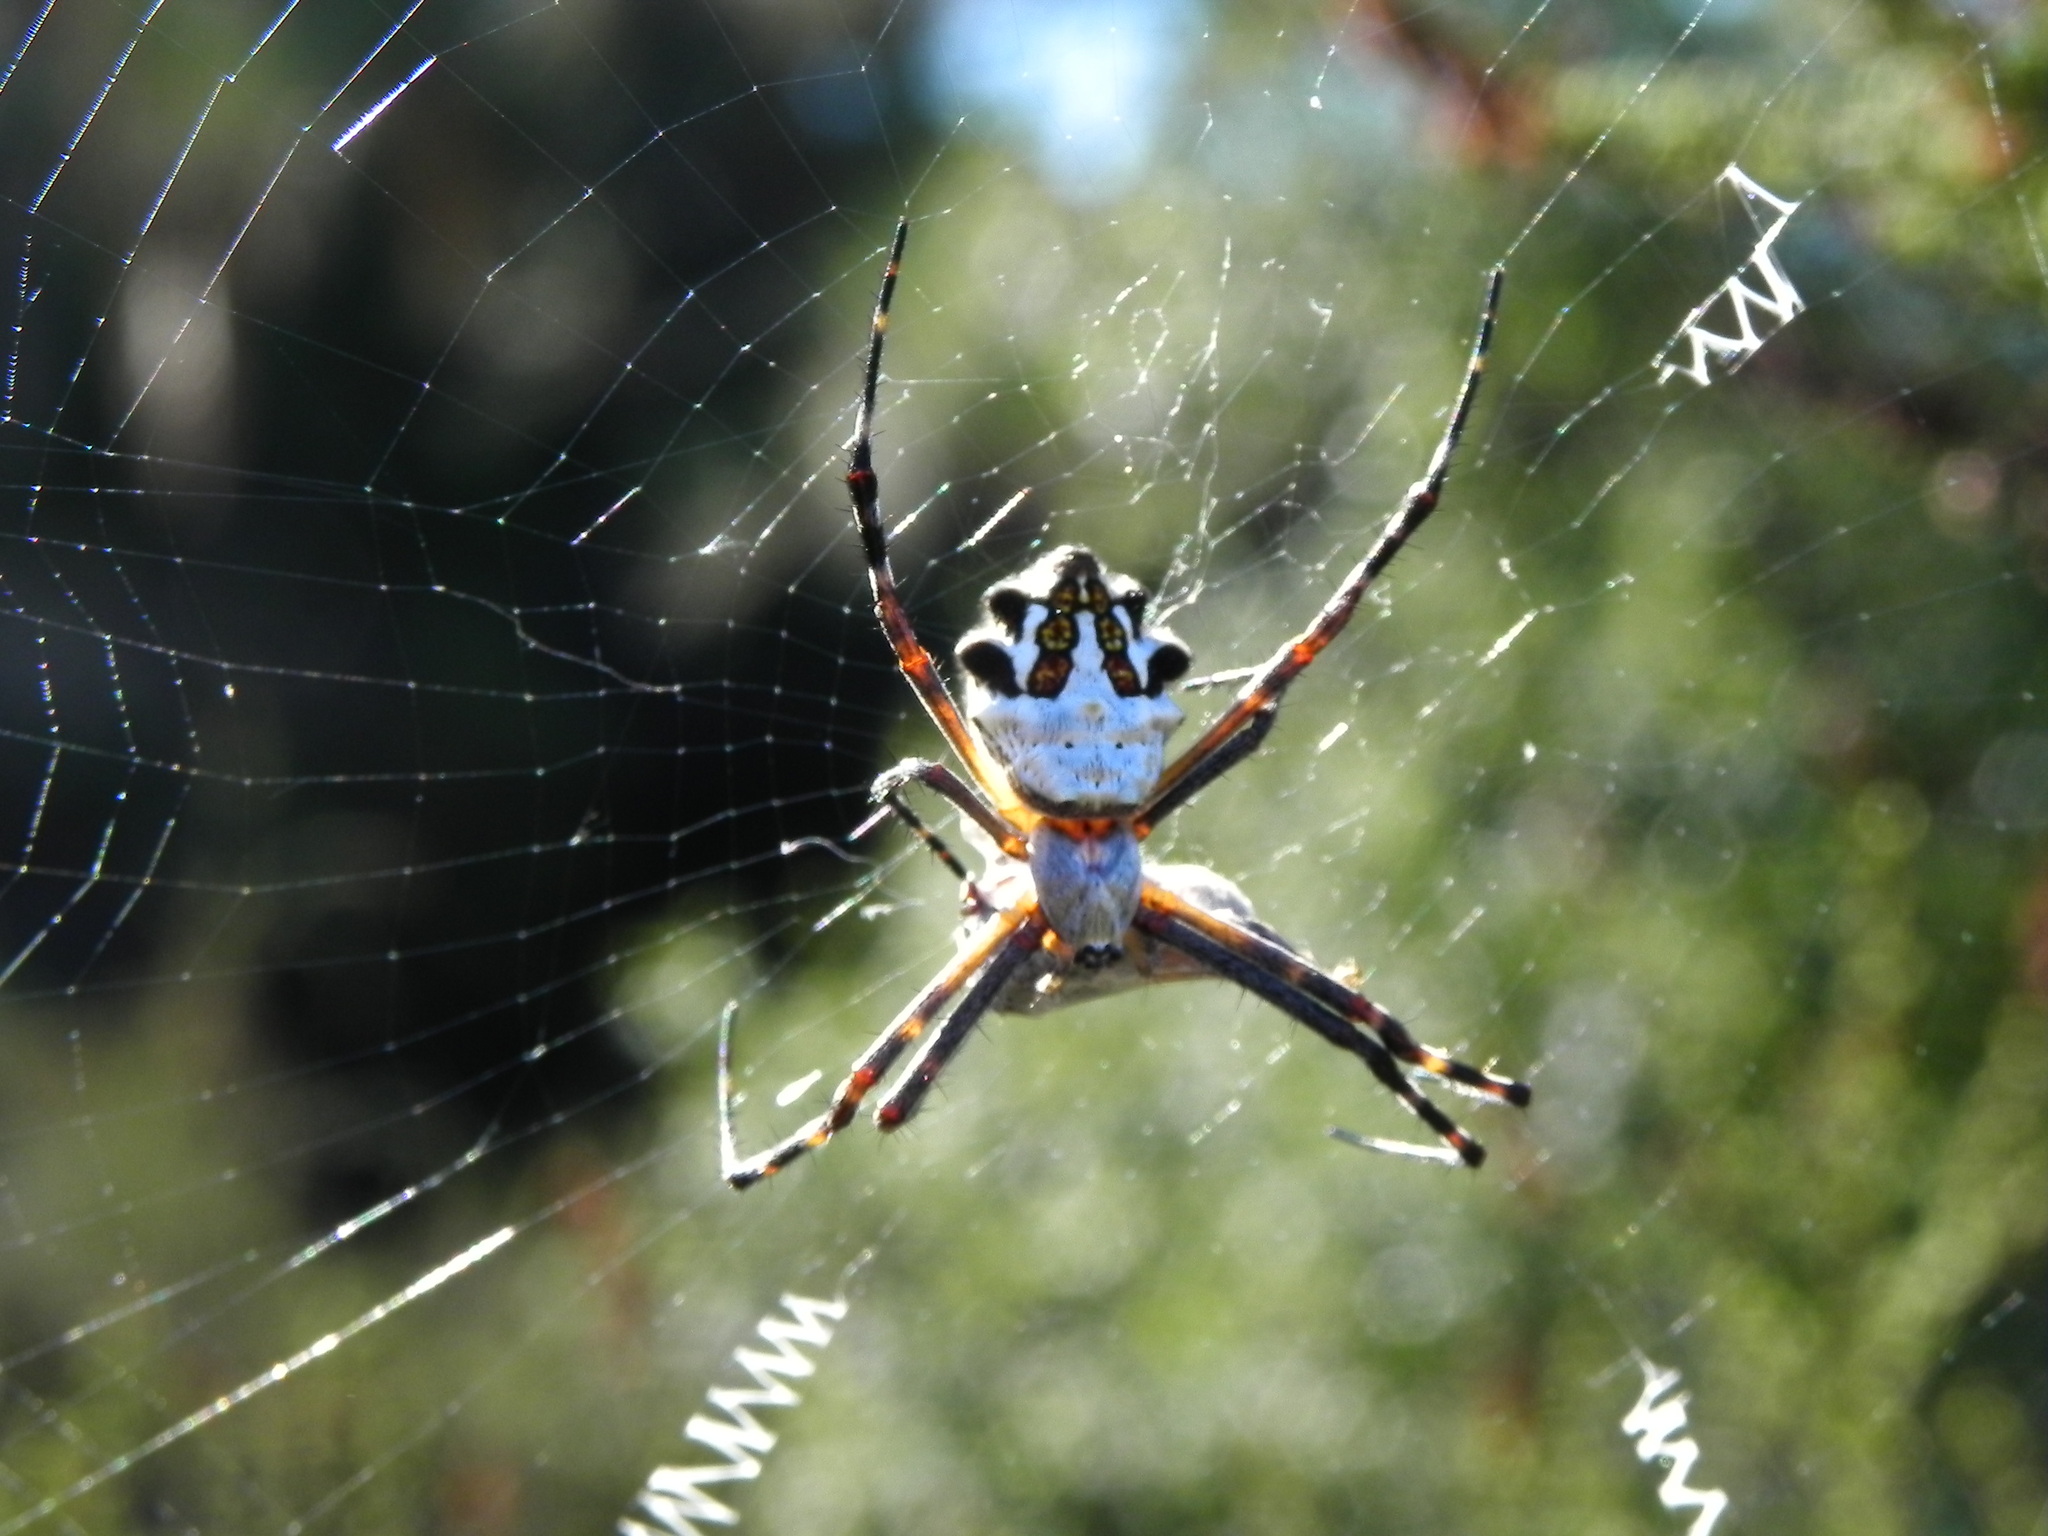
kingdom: Animalia
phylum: Arthropoda
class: Arachnida
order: Araneae
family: Araneidae
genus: Argiope
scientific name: Argiope argentata
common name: Orb weavers
